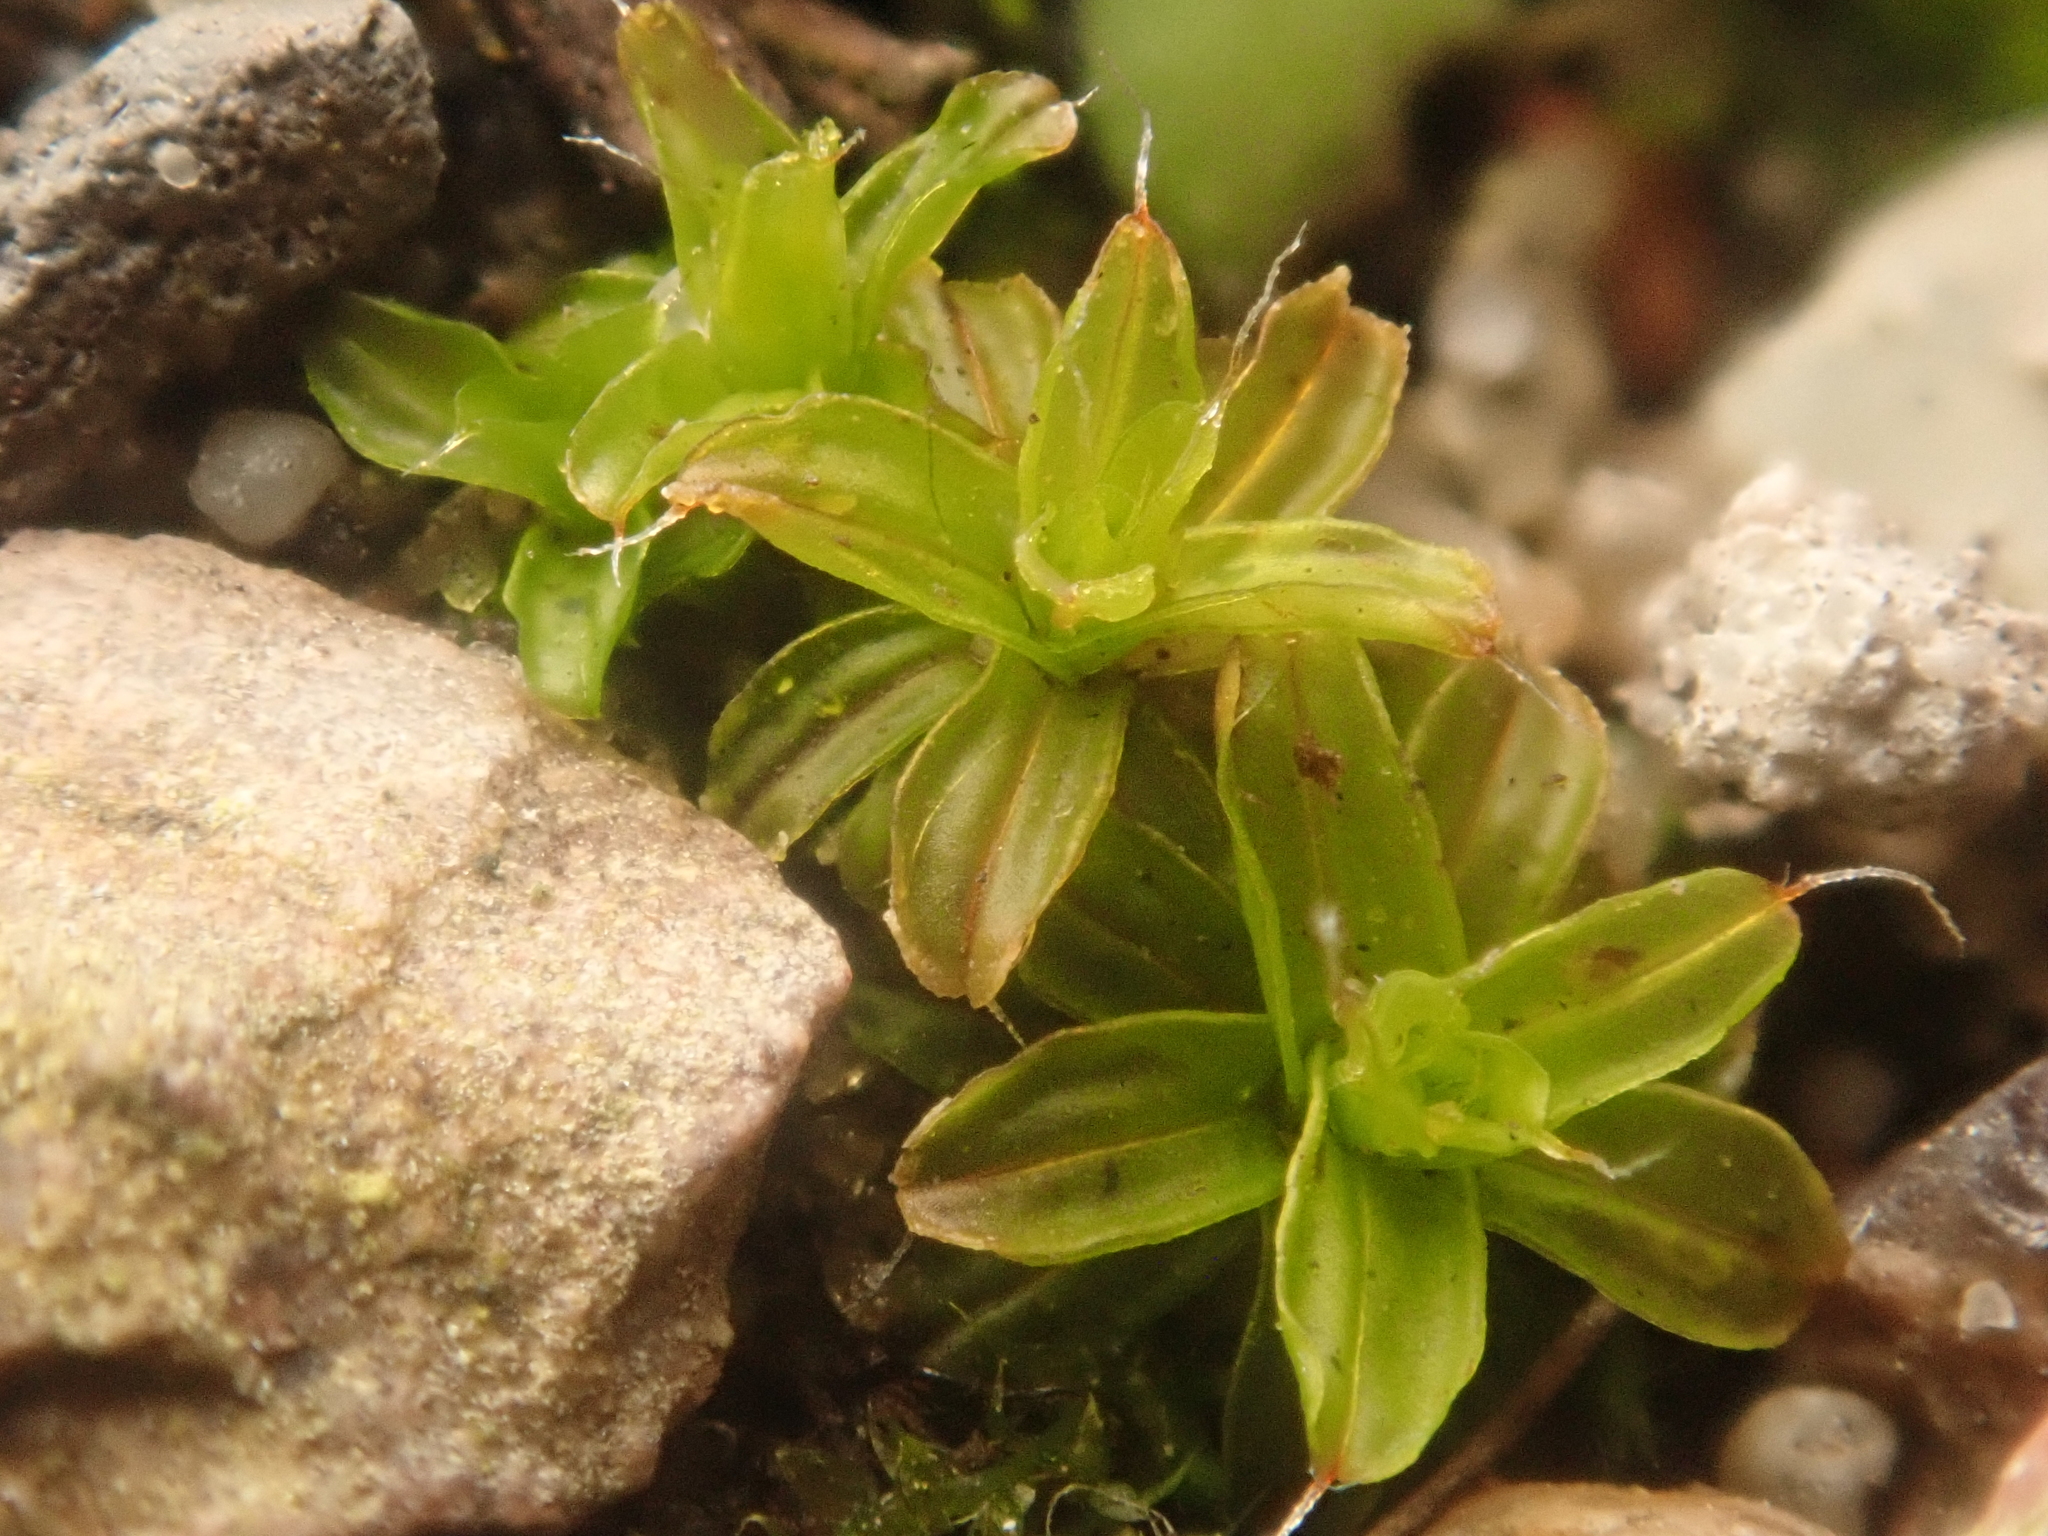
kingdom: Plantae
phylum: Bryophyta
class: Bryopsida
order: Pottiales
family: Pottiaceae
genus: Syntrichia
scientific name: Syntrichia ruralis
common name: Sidewalk screw moss
